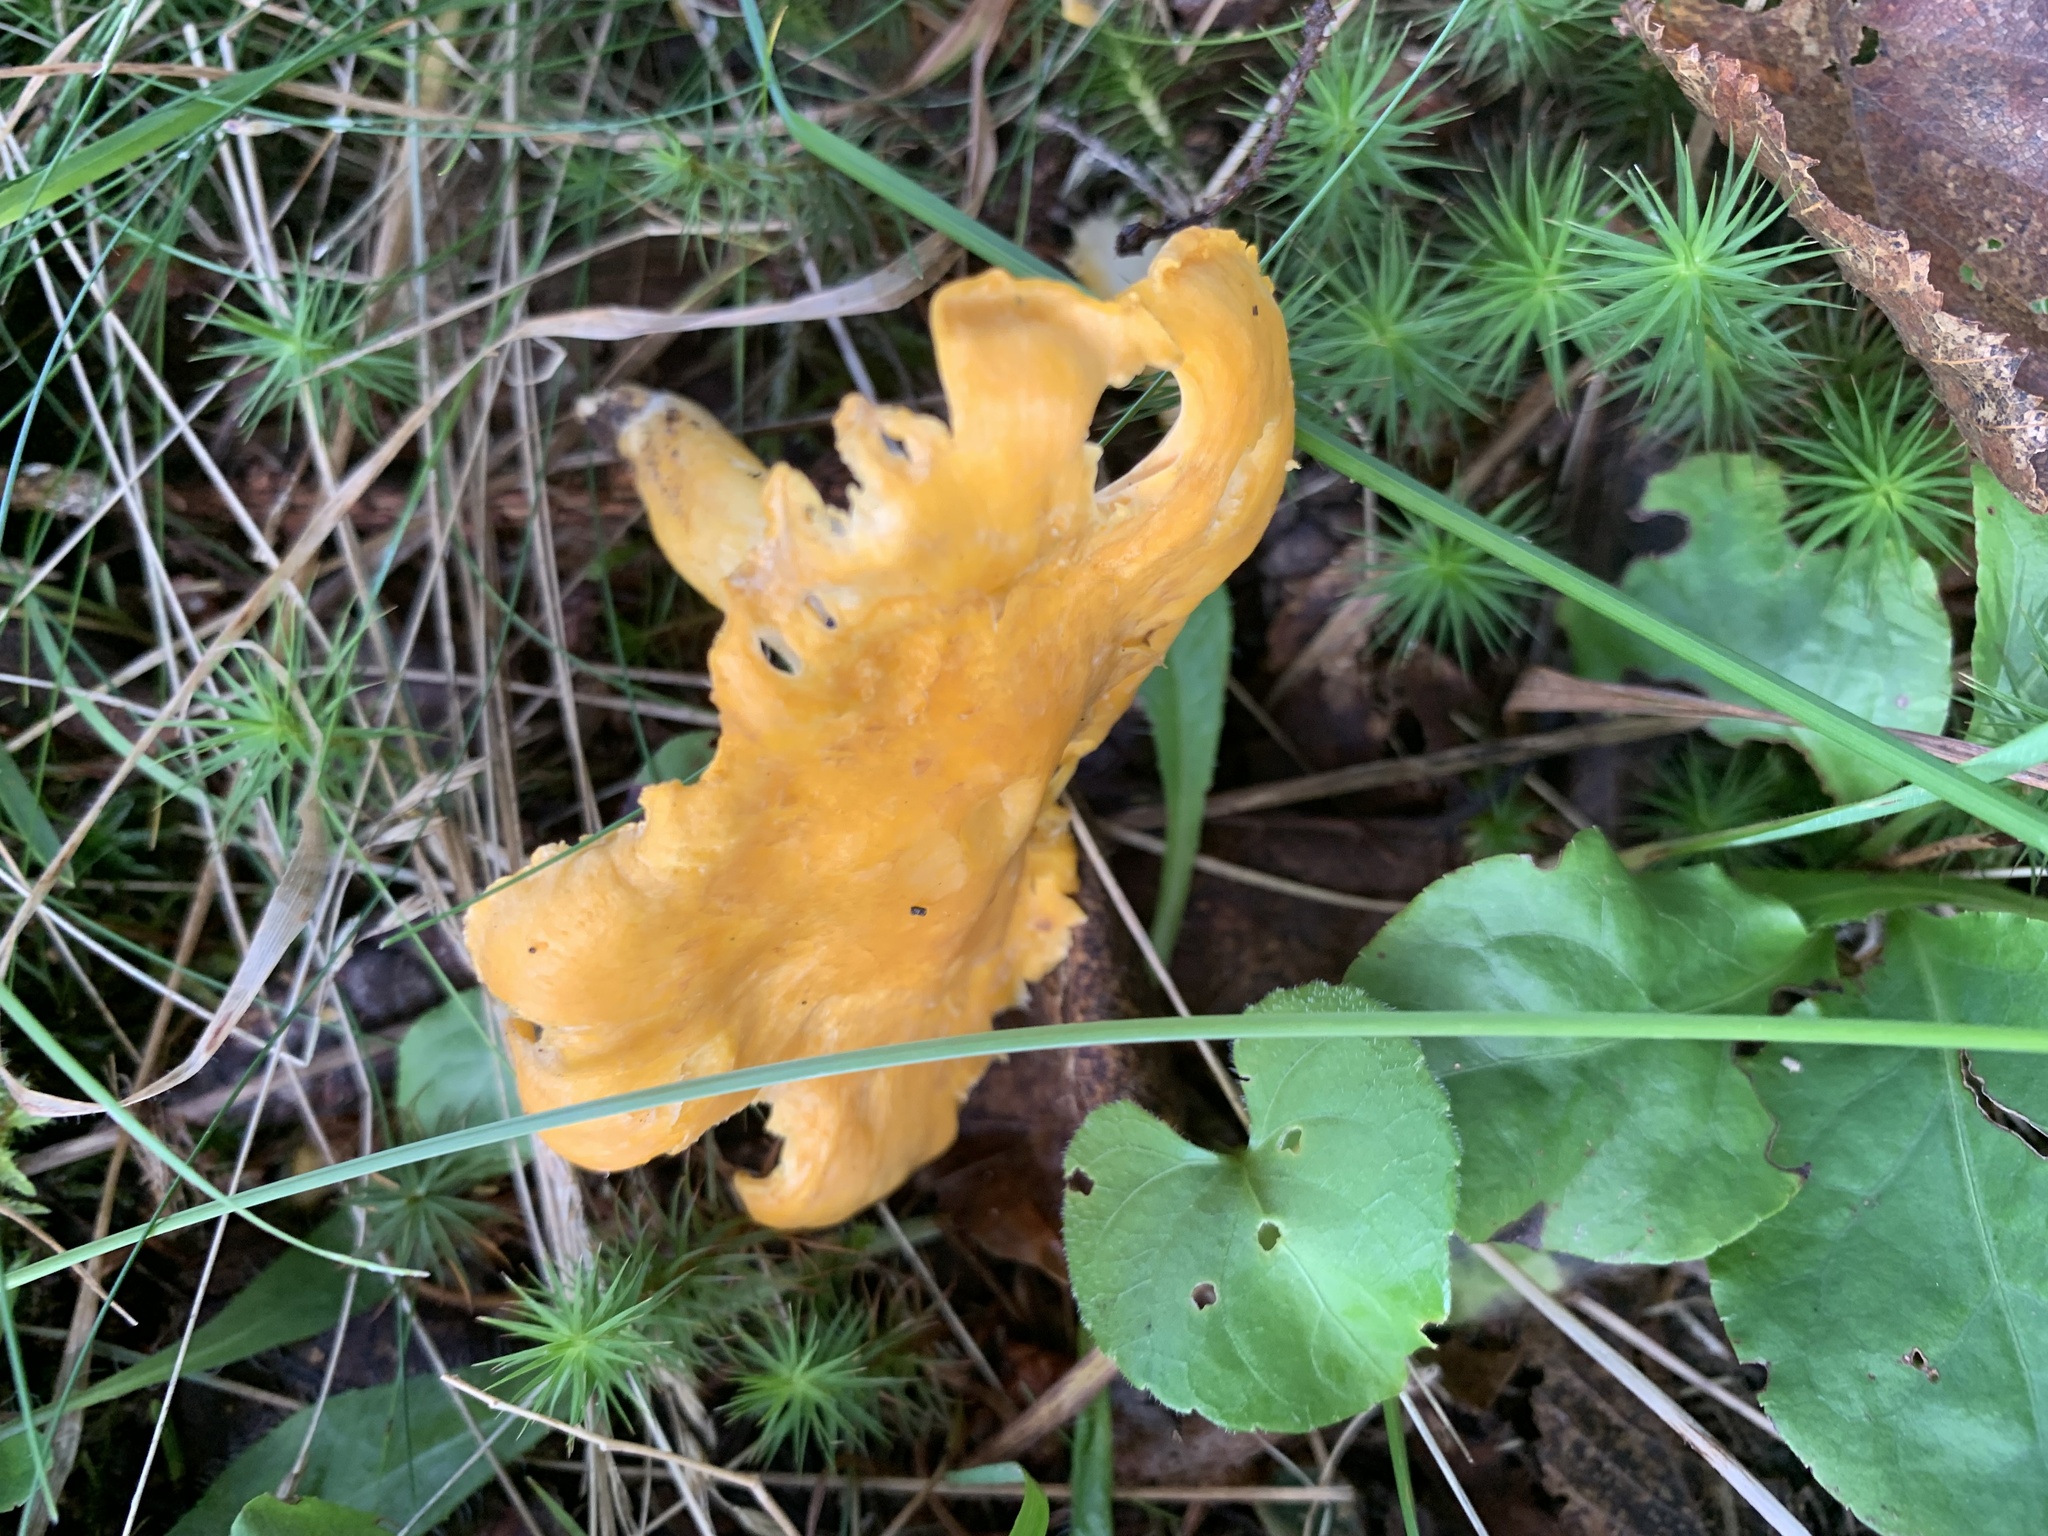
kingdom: Fungi
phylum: Basidiomycota
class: Agaricomycetes
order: Cantharellales
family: Hydnaceae
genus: Cantharellus
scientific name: Cantharellus enelensis
